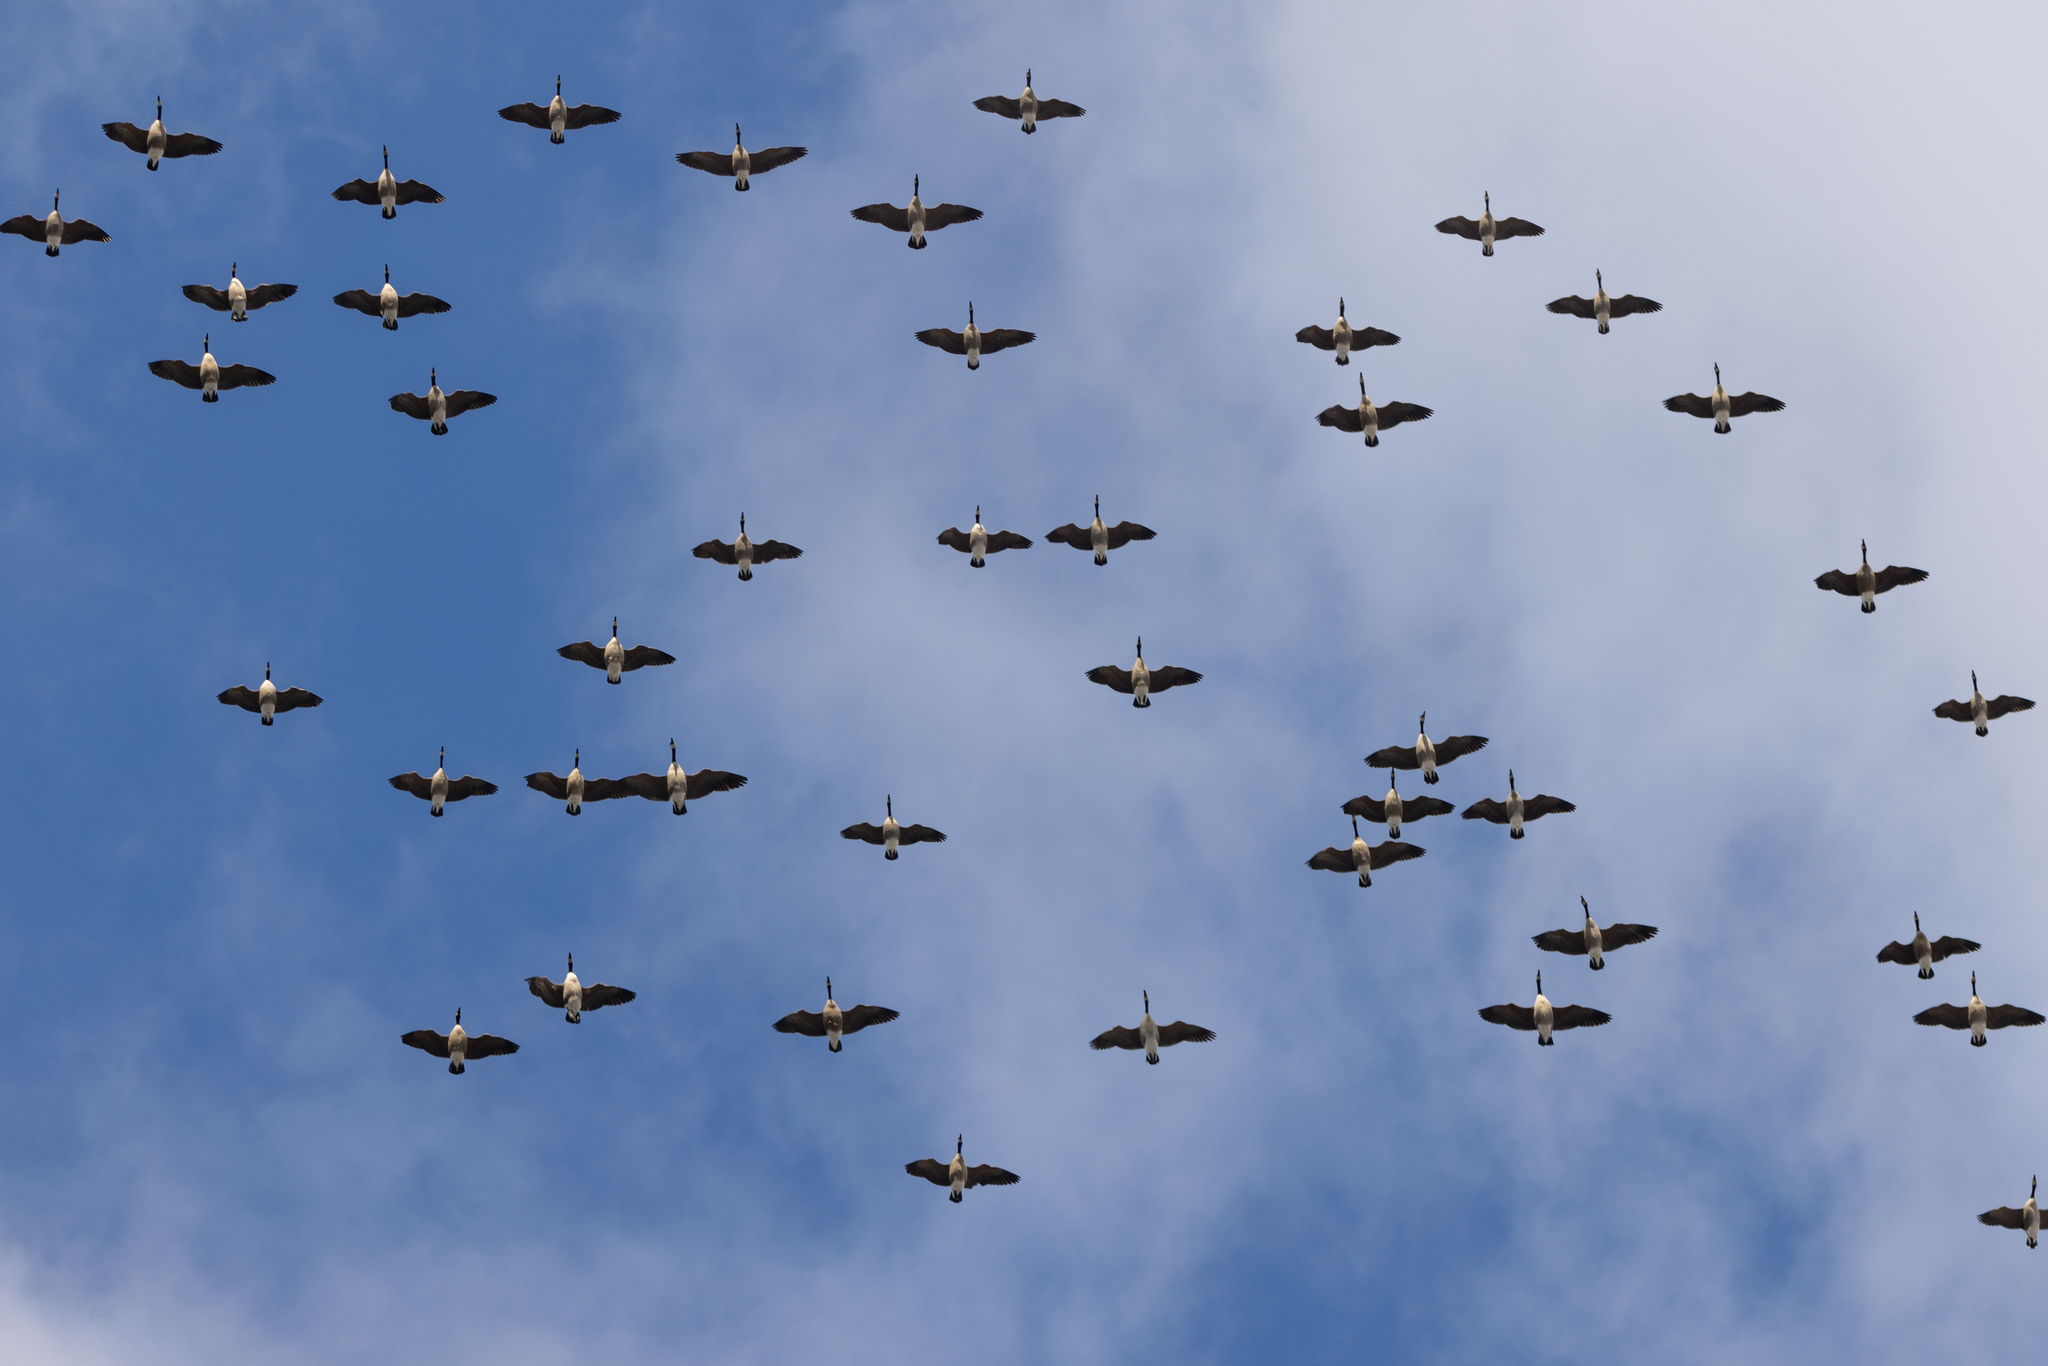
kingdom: Animalia
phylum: Chordata
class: Aves
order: Anseriformes
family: Anatidae
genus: Branta
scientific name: Branta canadensis
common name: Canada goose
